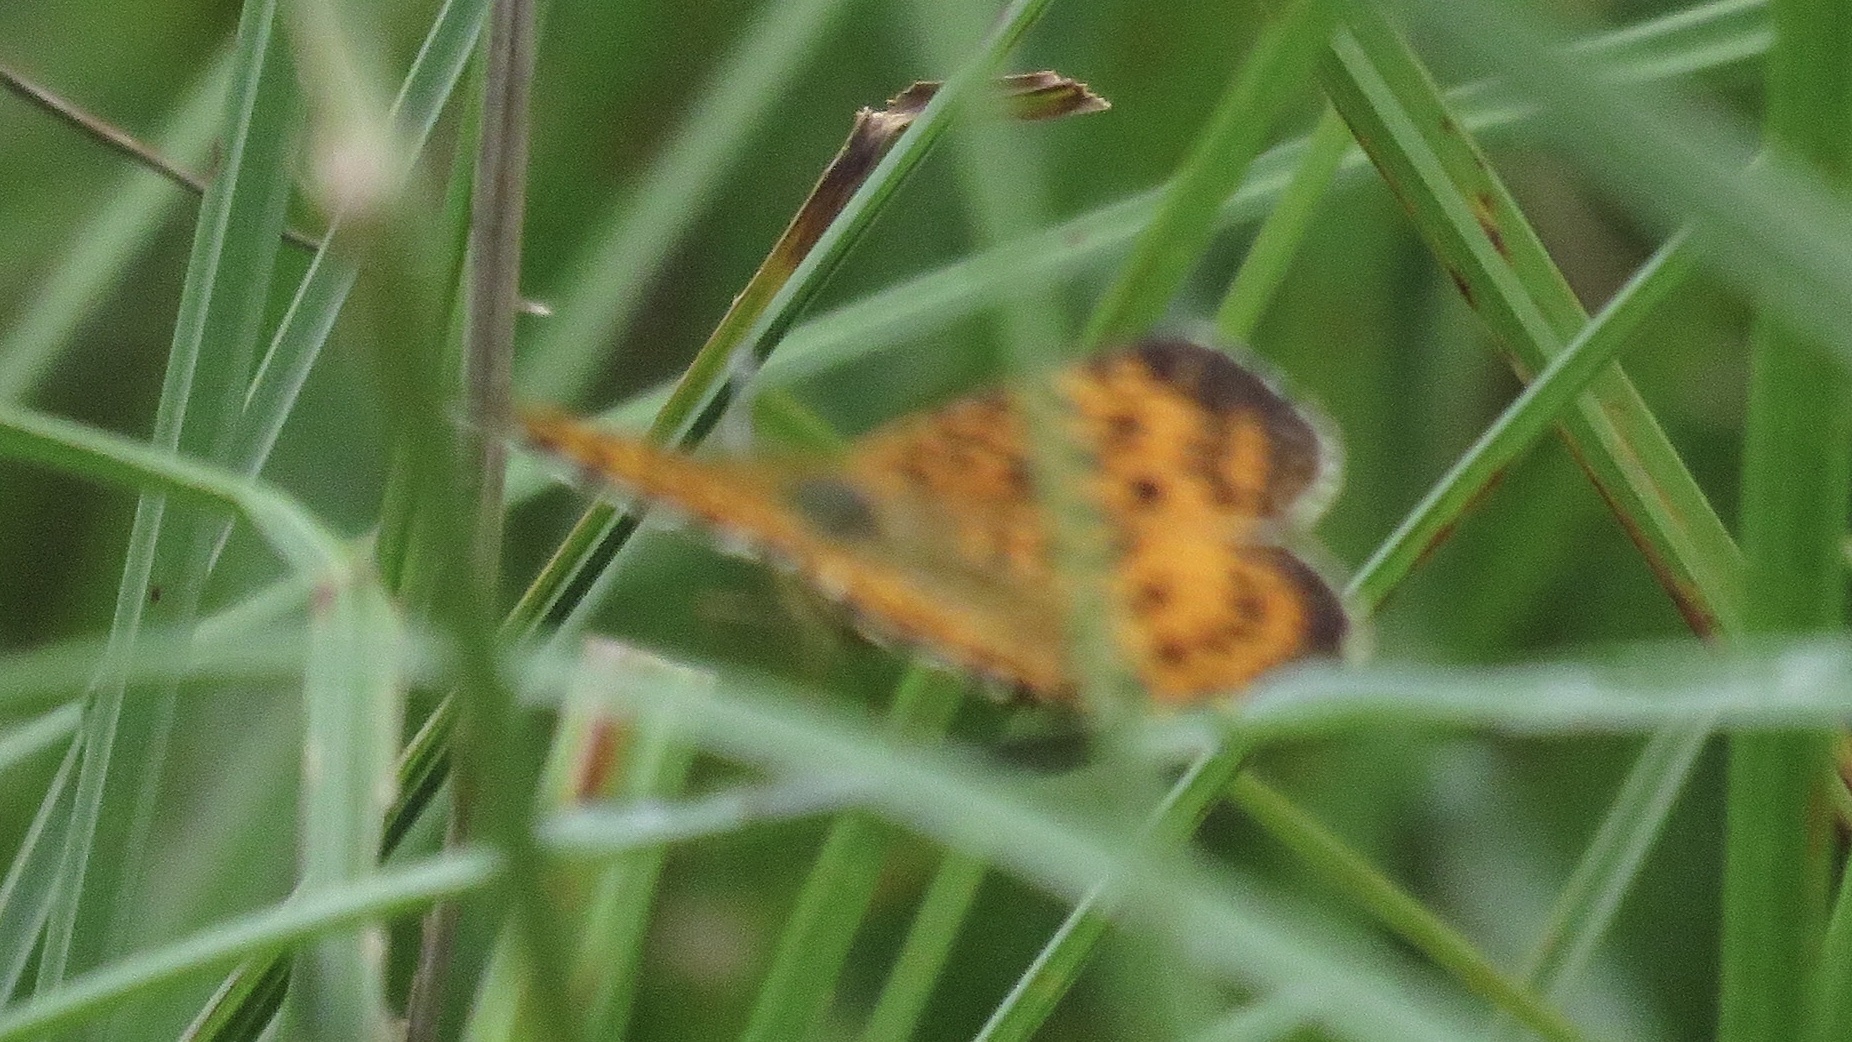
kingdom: Animalia
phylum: Arthropoda
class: Insecta
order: Lepidoptera
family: Nymphalidae
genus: Boloria
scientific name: Boloria
